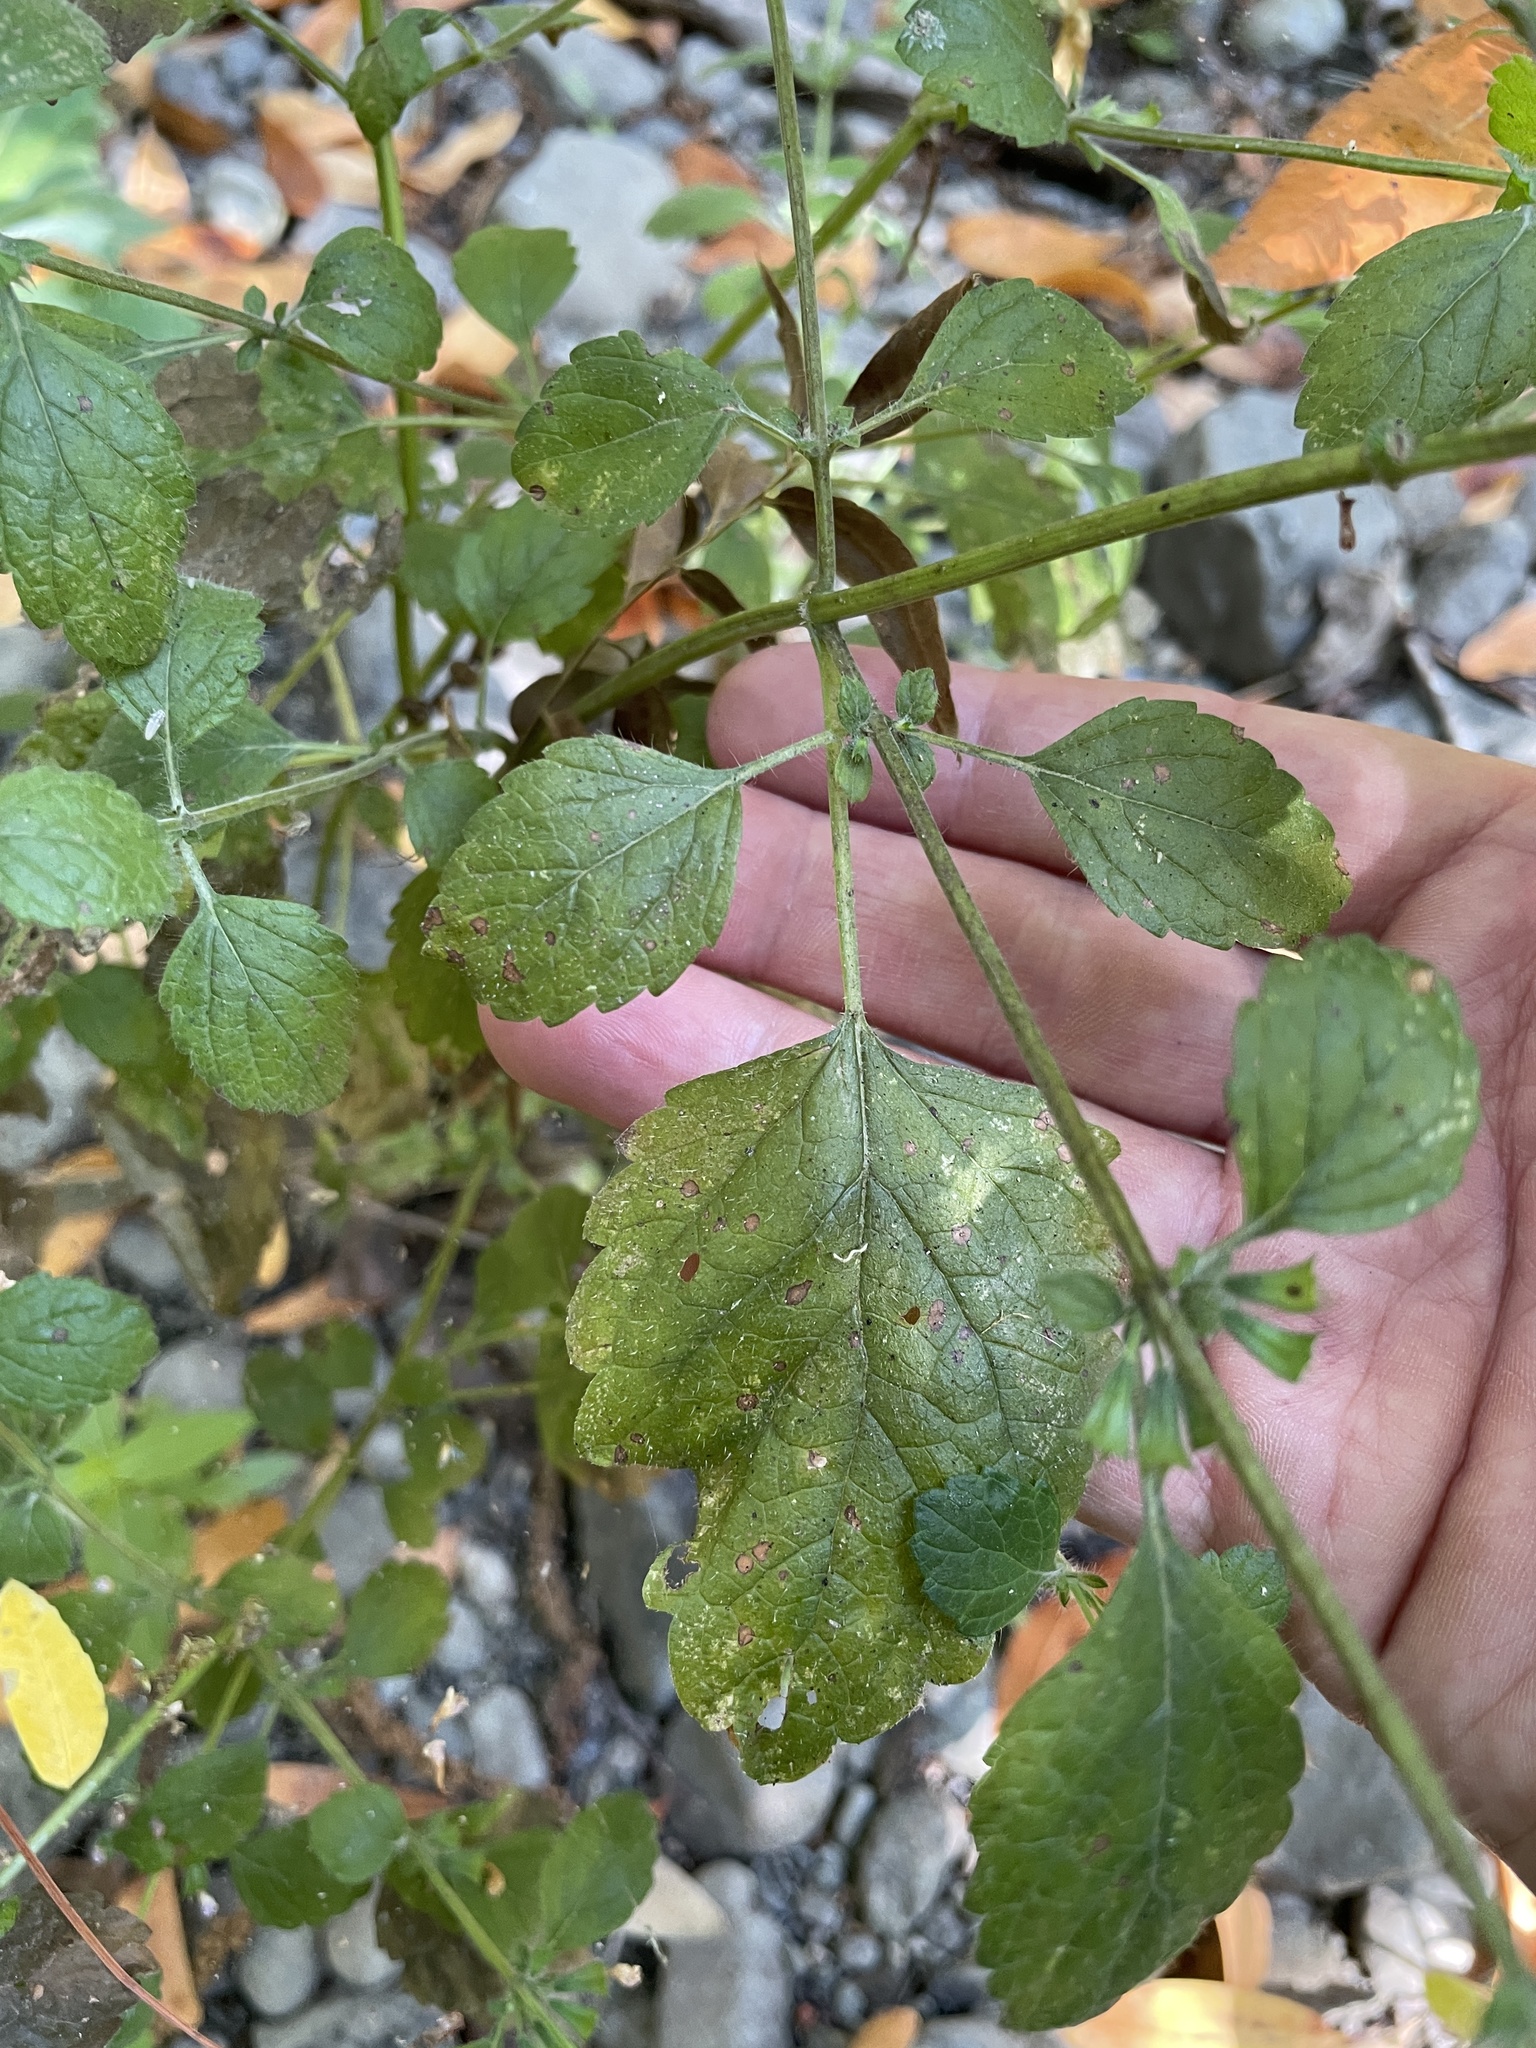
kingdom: Plantae
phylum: Tracheophyta
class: Magnoliopsida
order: Lamiales
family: Lamiaceae
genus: Melissa
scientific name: Melissa officinalis
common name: Balm
